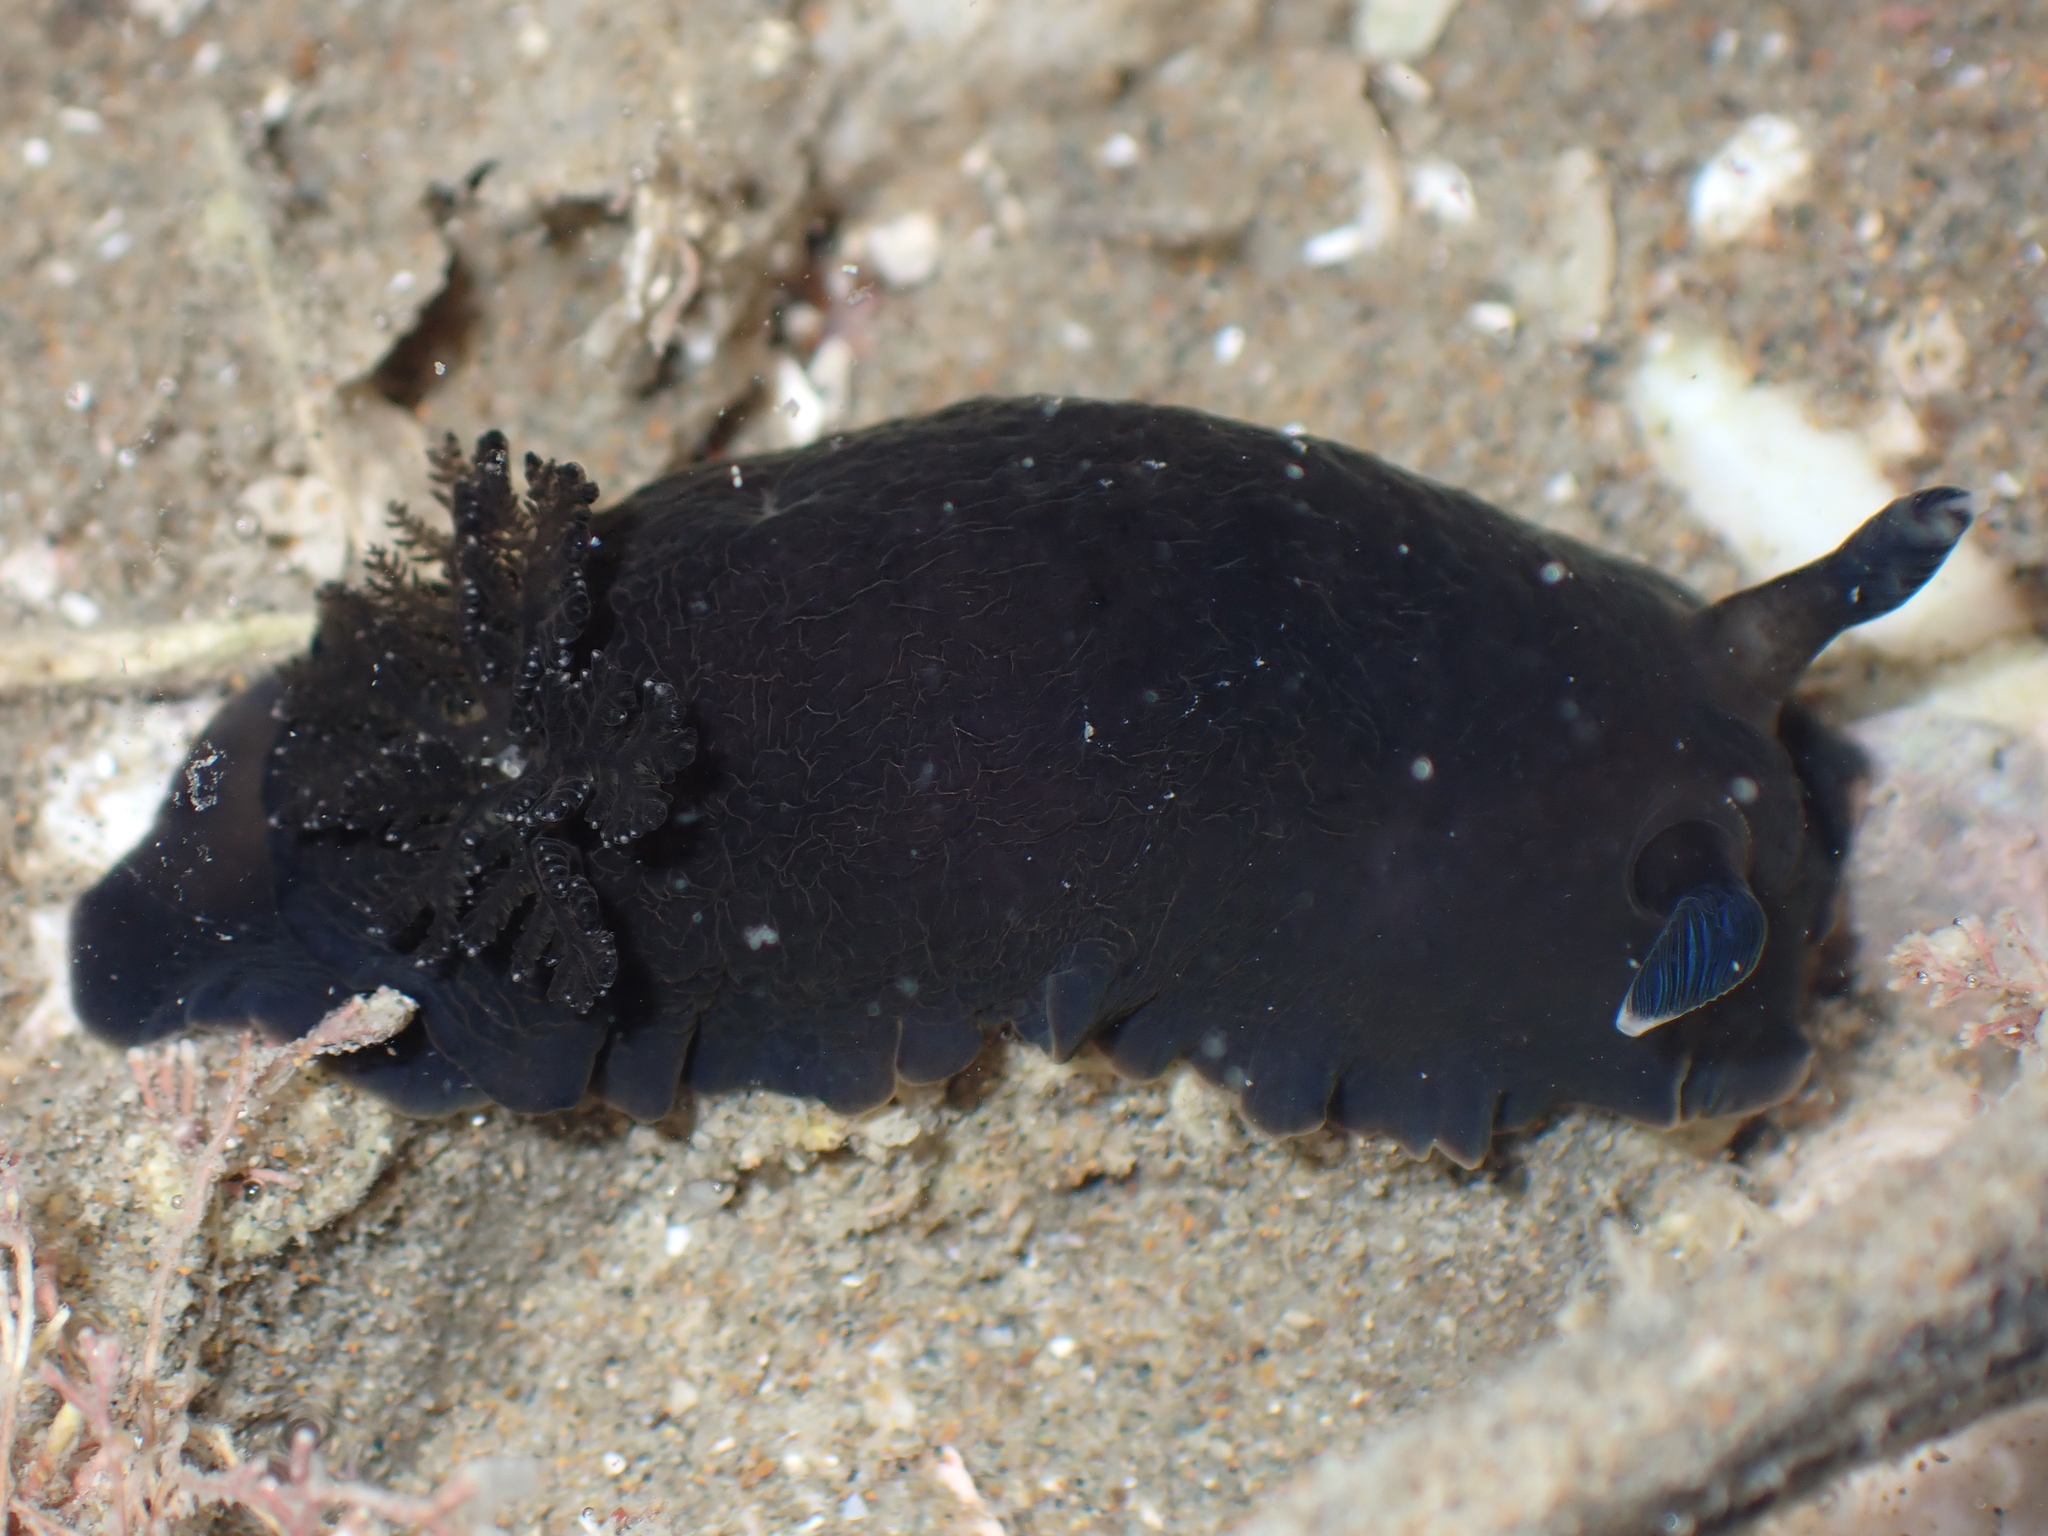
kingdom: Animalia
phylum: Mollusca
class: Gastropoda
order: Nudibranchia
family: Dendrodorididae
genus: Dendrodoris
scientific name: Dendrodoris nigra
